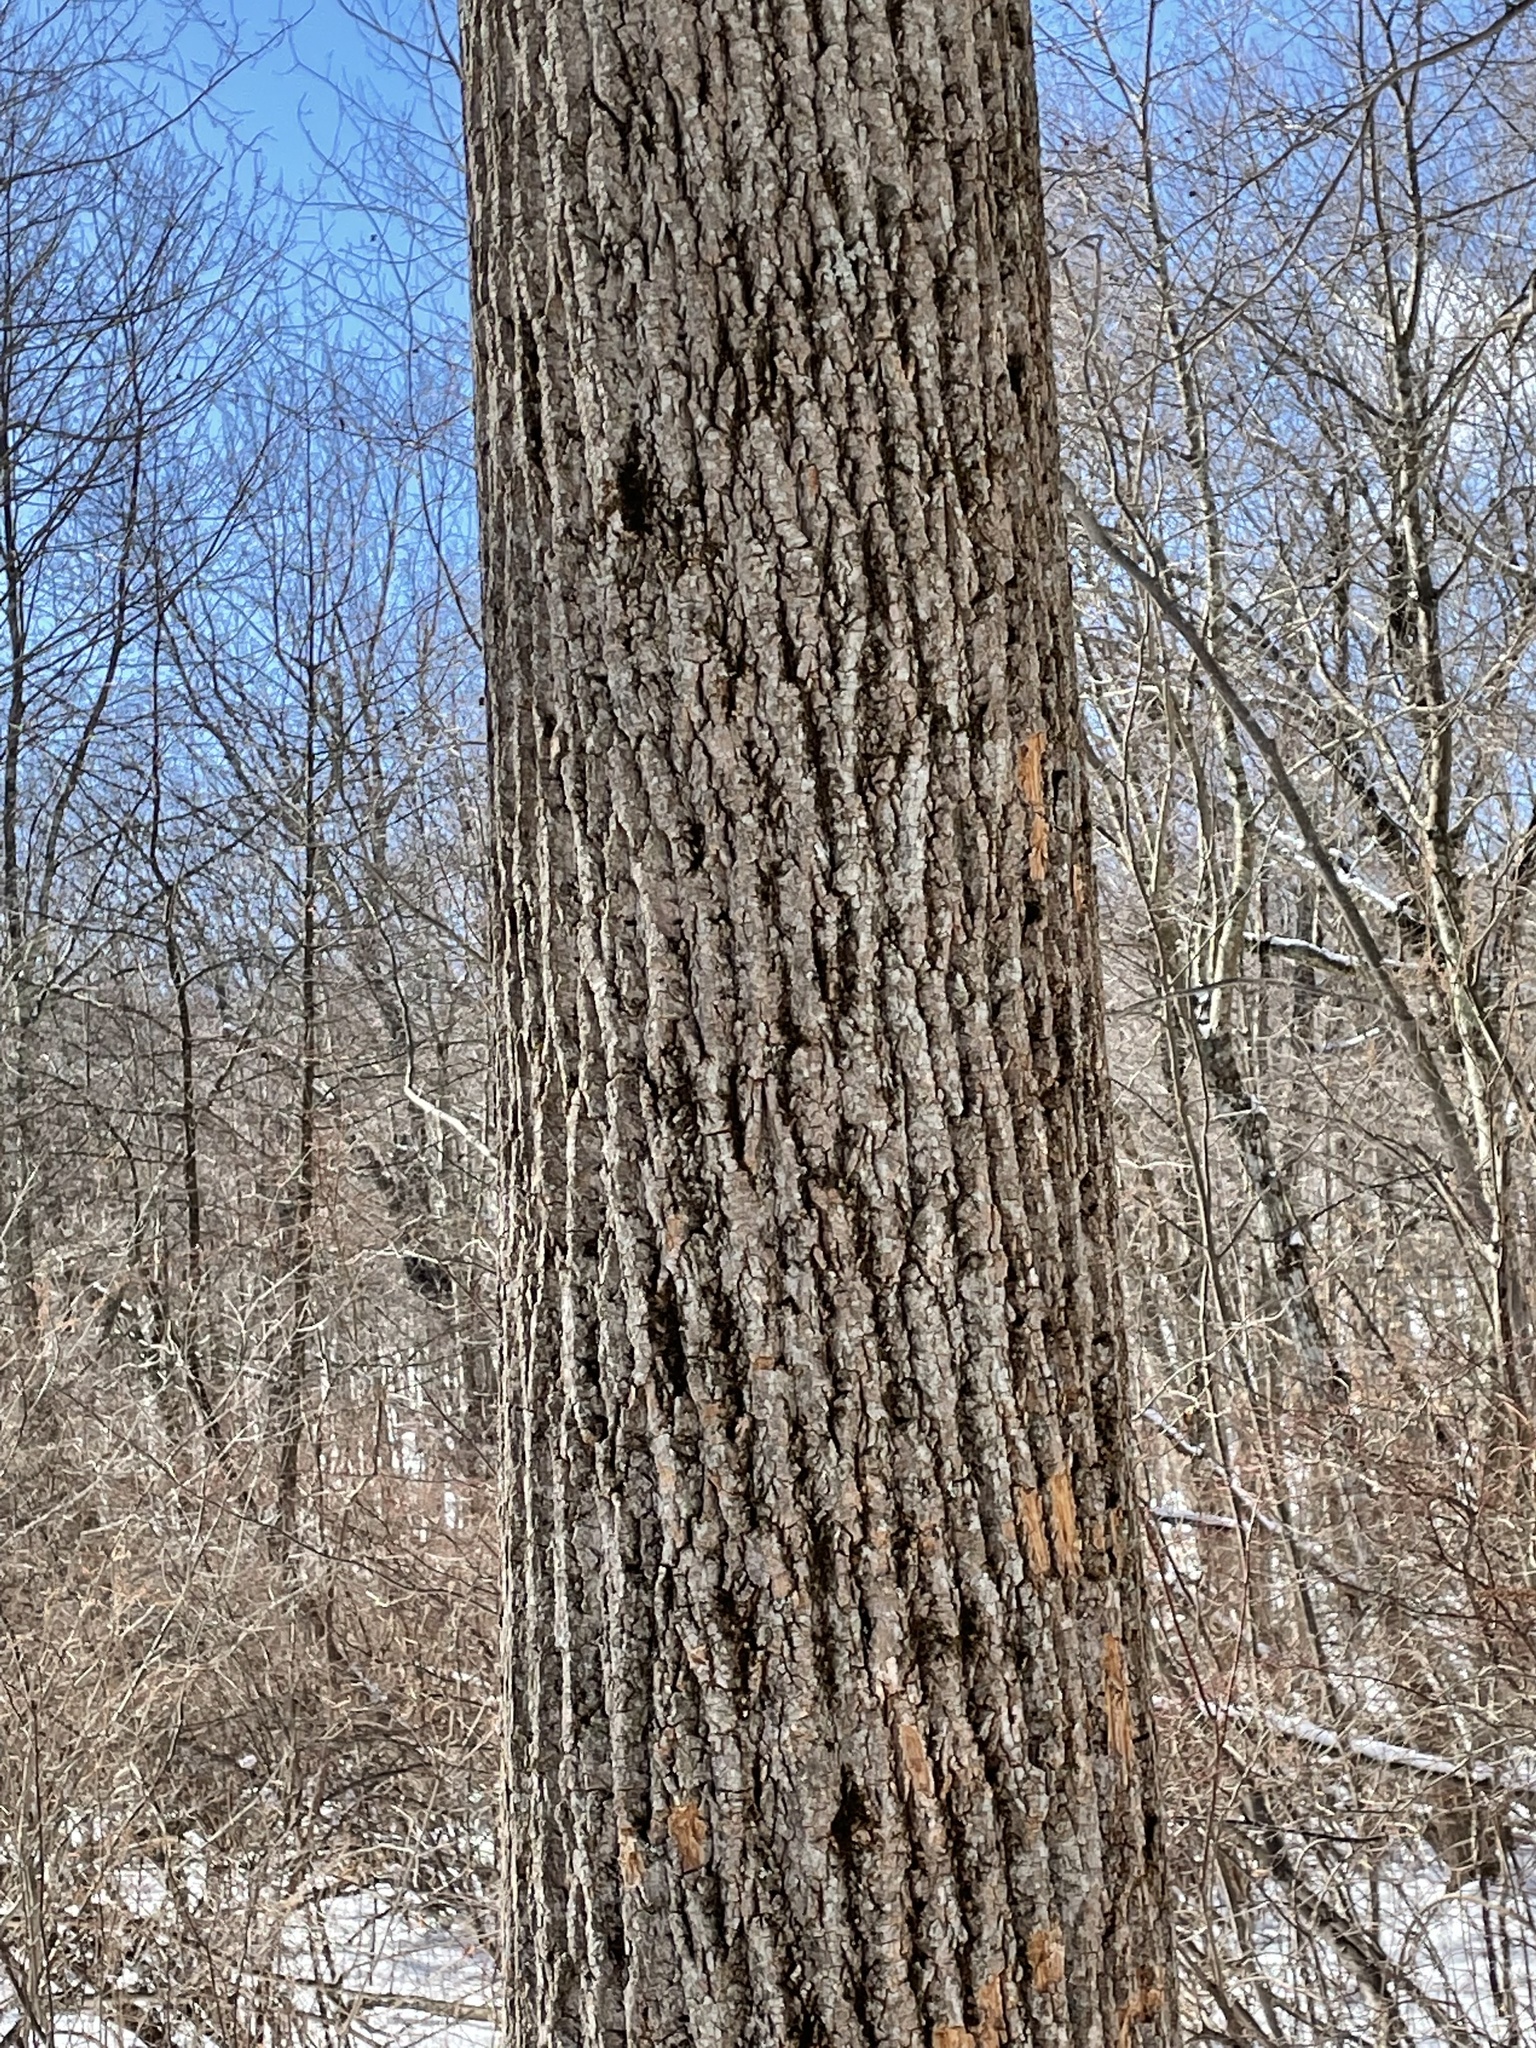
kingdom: Plantae
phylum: Tracheophyta
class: Magnoliopsida
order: Magnoliales
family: Magnoliaceae
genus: Liriodendron
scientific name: Liriodendron tulipifera
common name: Tulip tree
